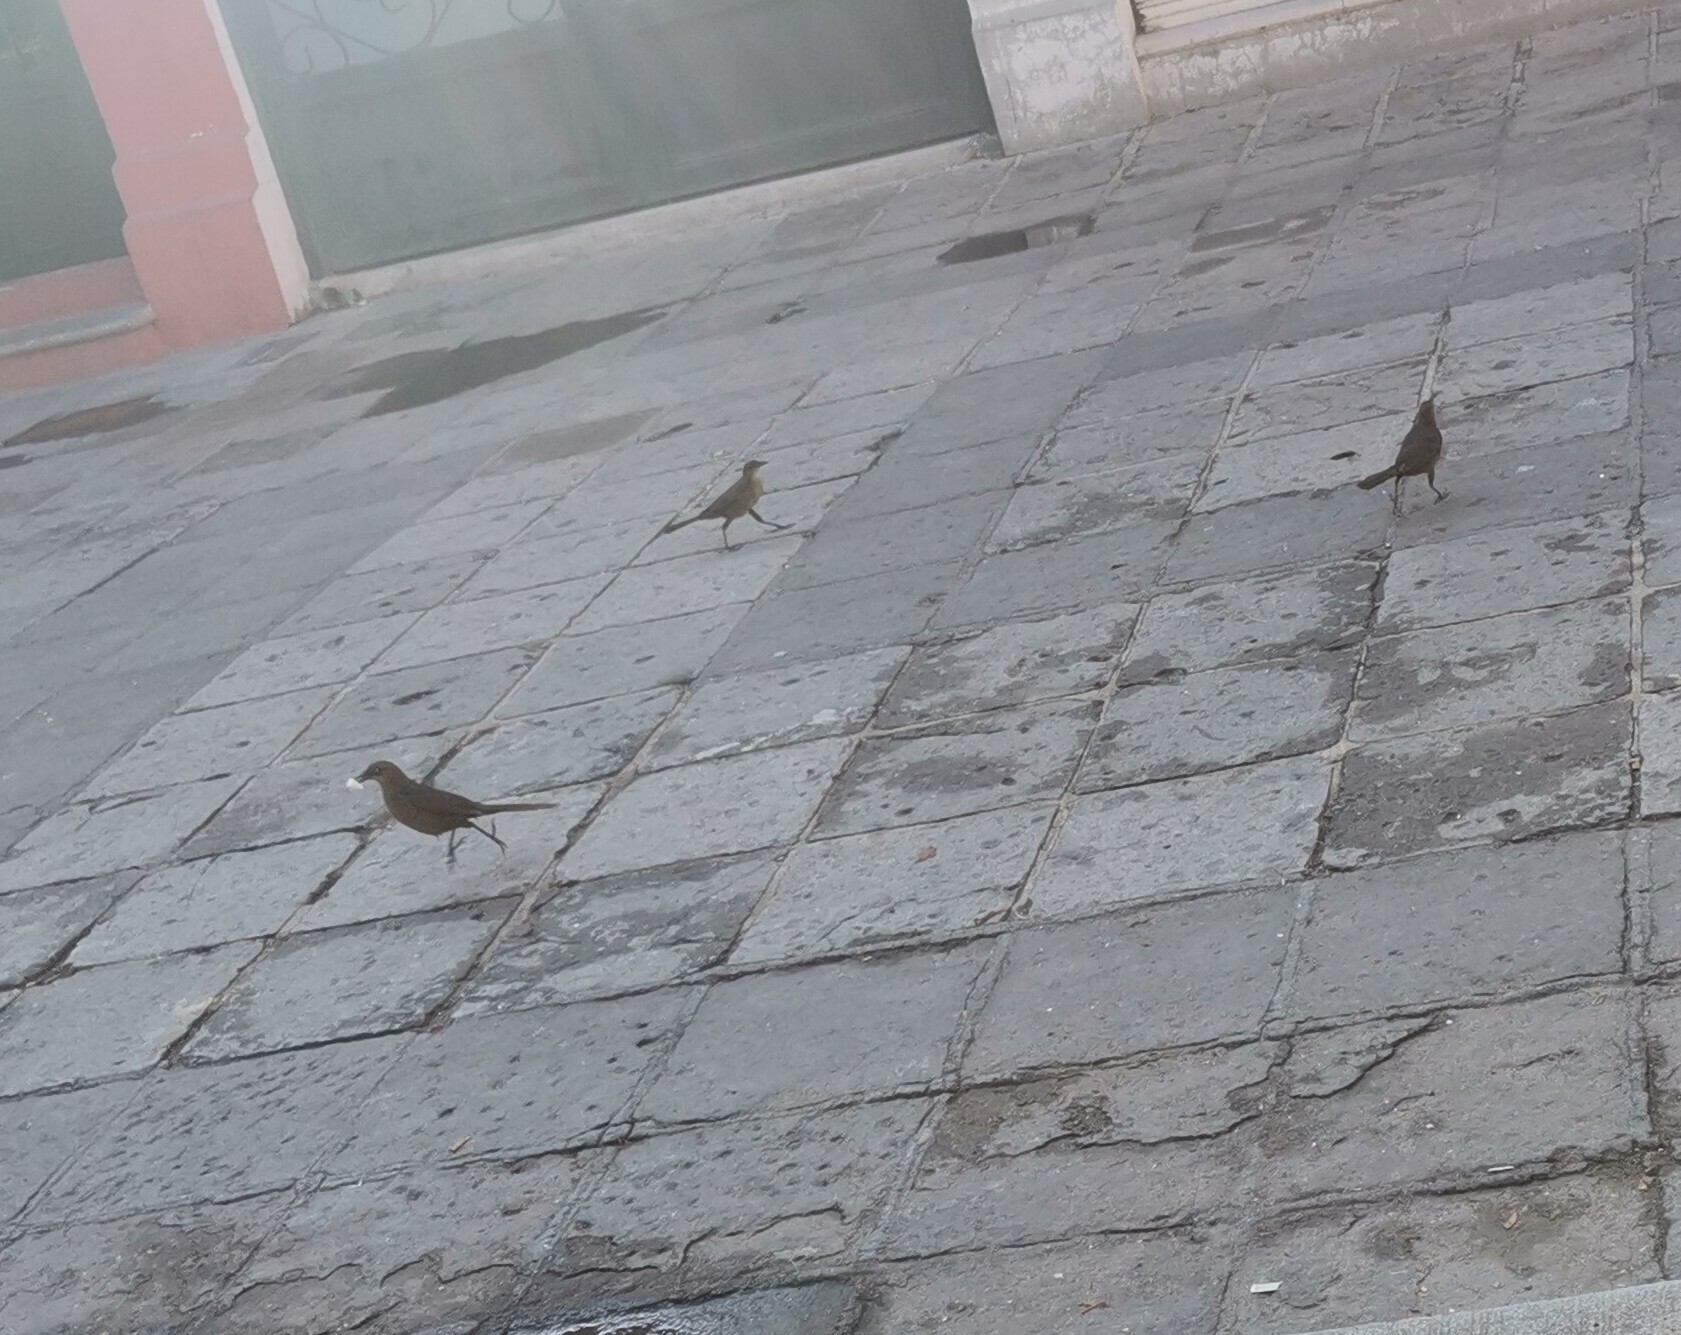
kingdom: Animalia
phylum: Chordata
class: Aves
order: Passeriformes
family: Icteridae
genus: Quiscalus
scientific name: Quiscalus mexicanus
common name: Great-tailed grackle
